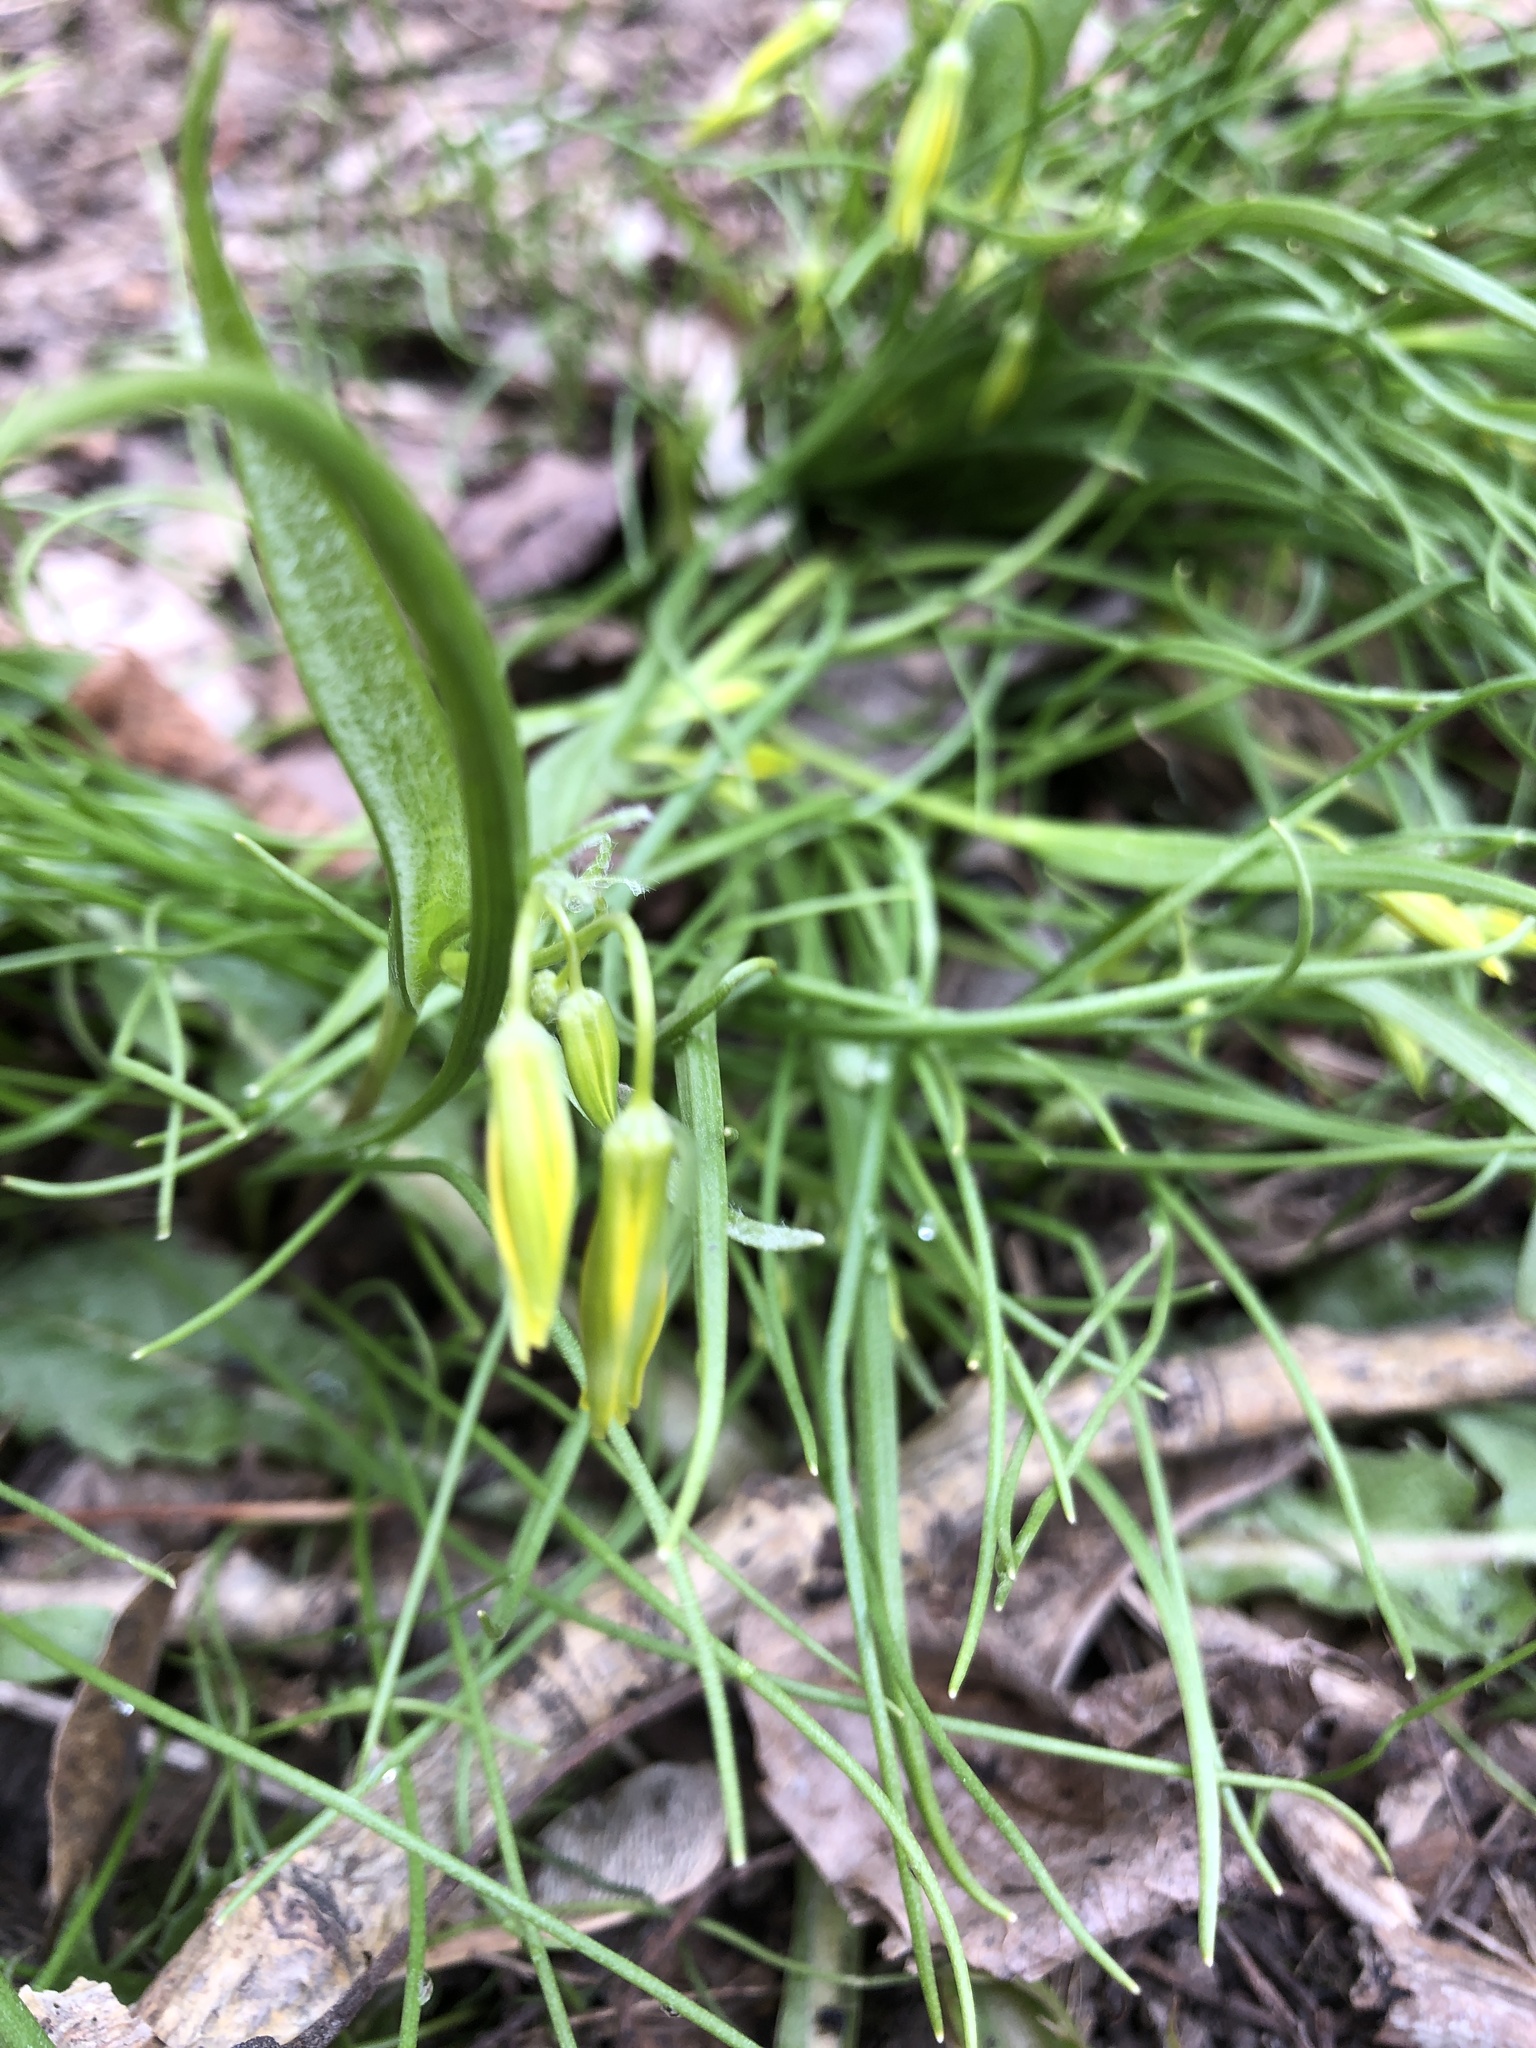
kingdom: Plantae
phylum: Tracheophyta
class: Liliopsida
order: Liliales
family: Liliaceae
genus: Gagea
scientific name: Gagea minima
